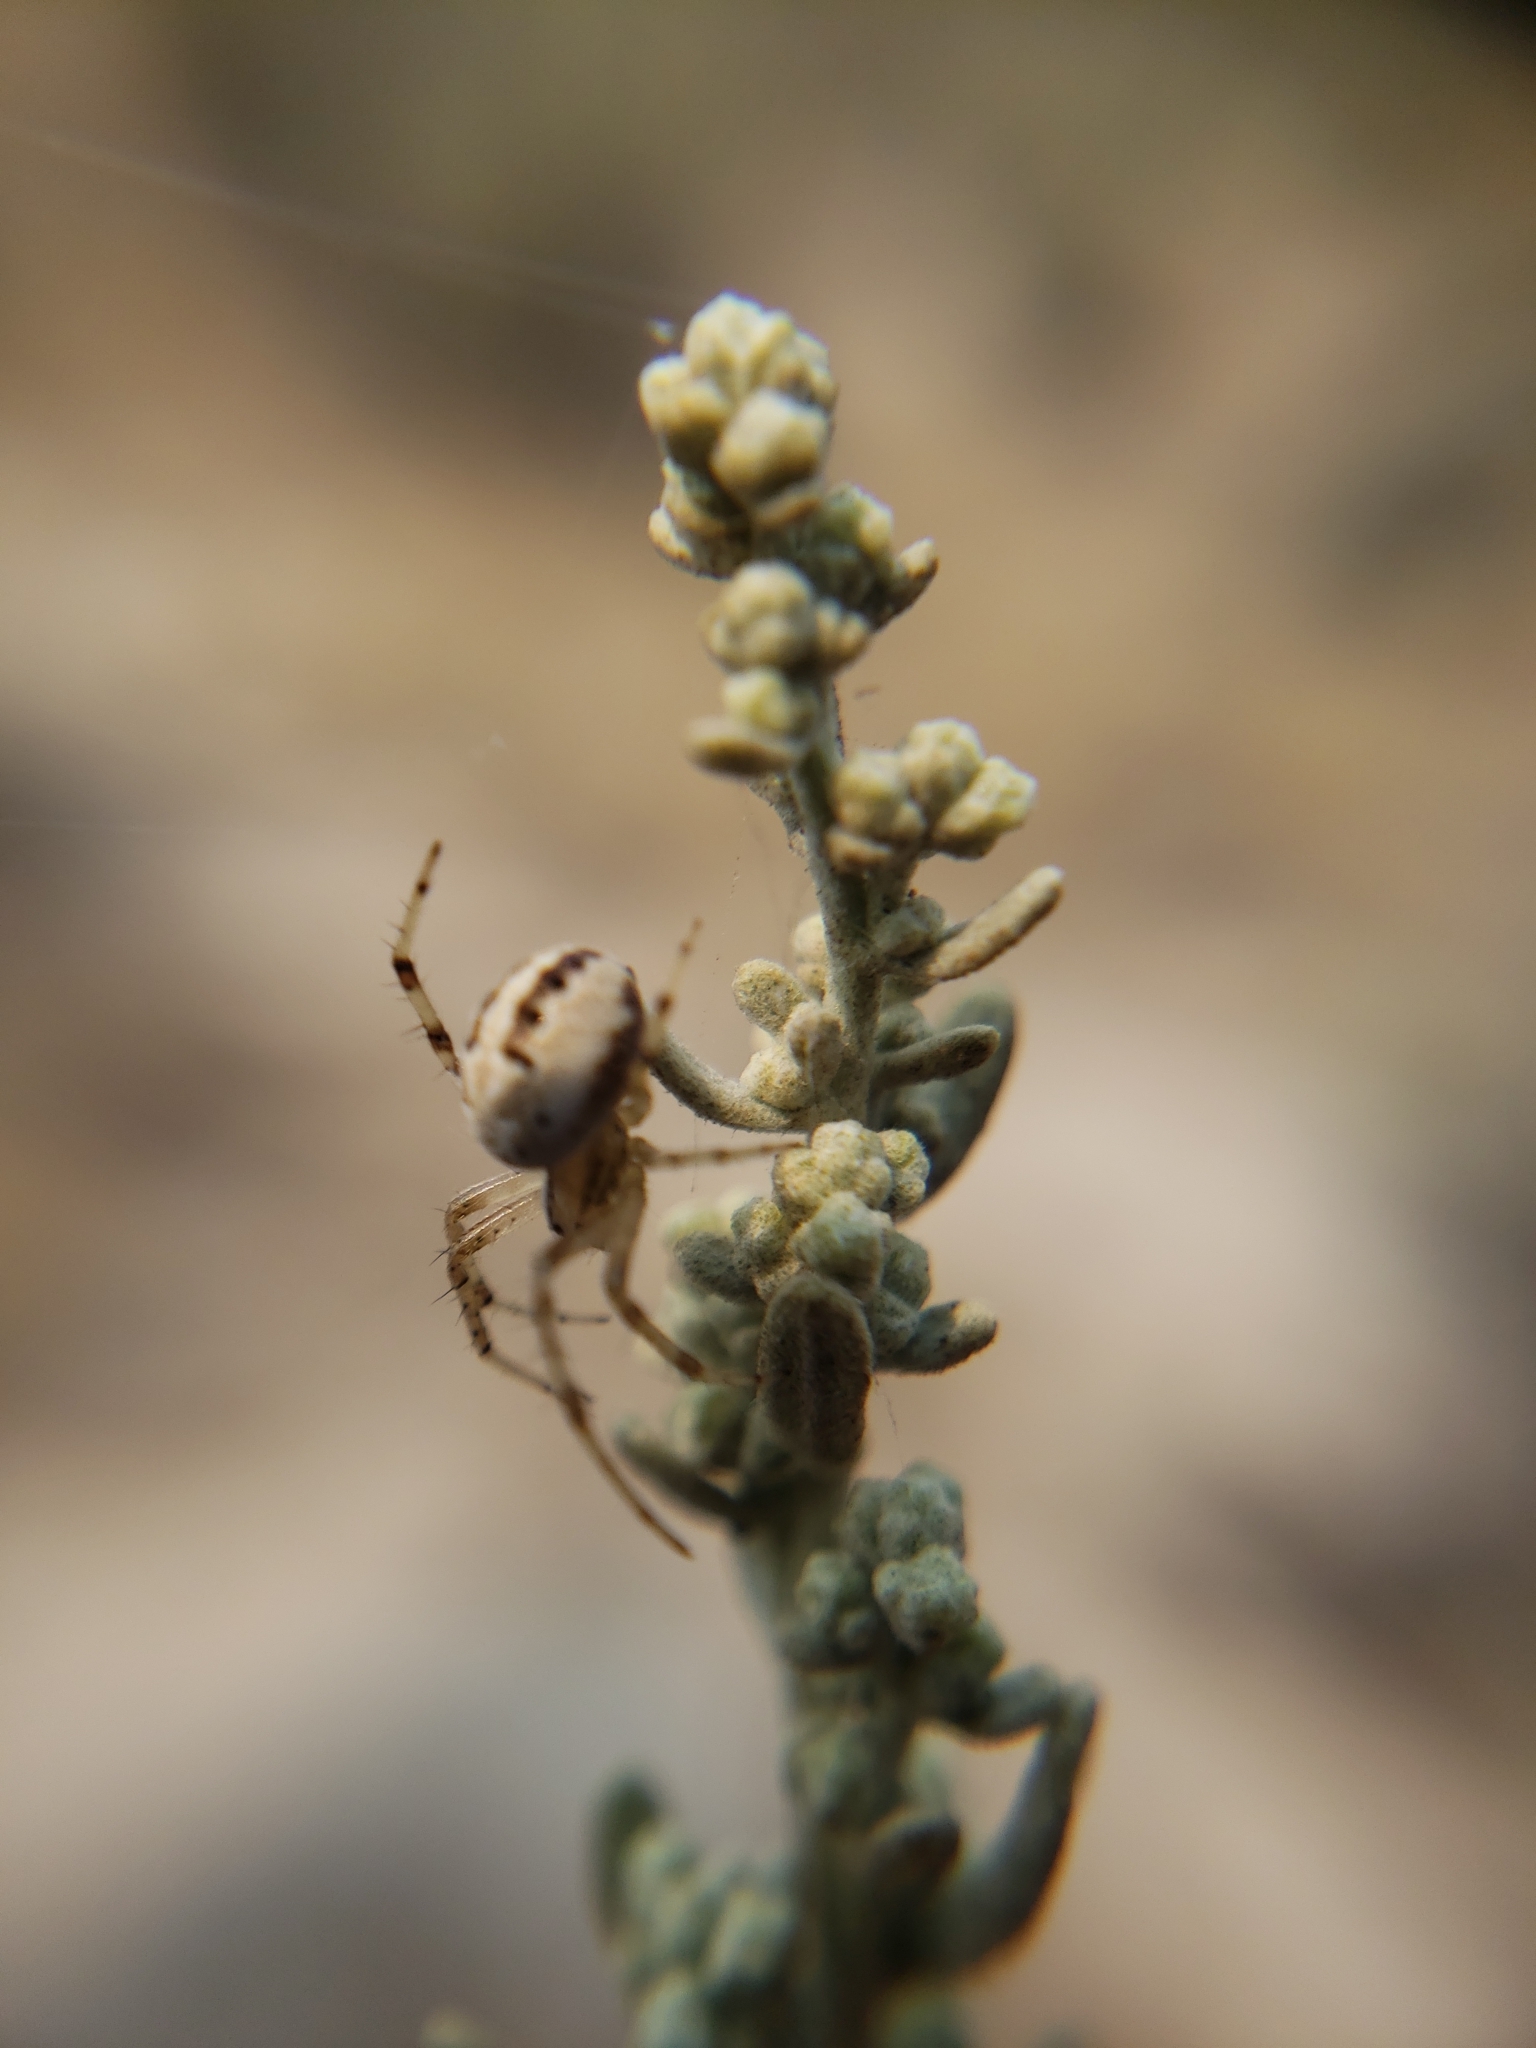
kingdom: Animalia
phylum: Arthropoda
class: Arachnida
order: Araneae
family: Araneidae
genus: Neoscona
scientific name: Neoscona oaxacensis
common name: Orb weavers
